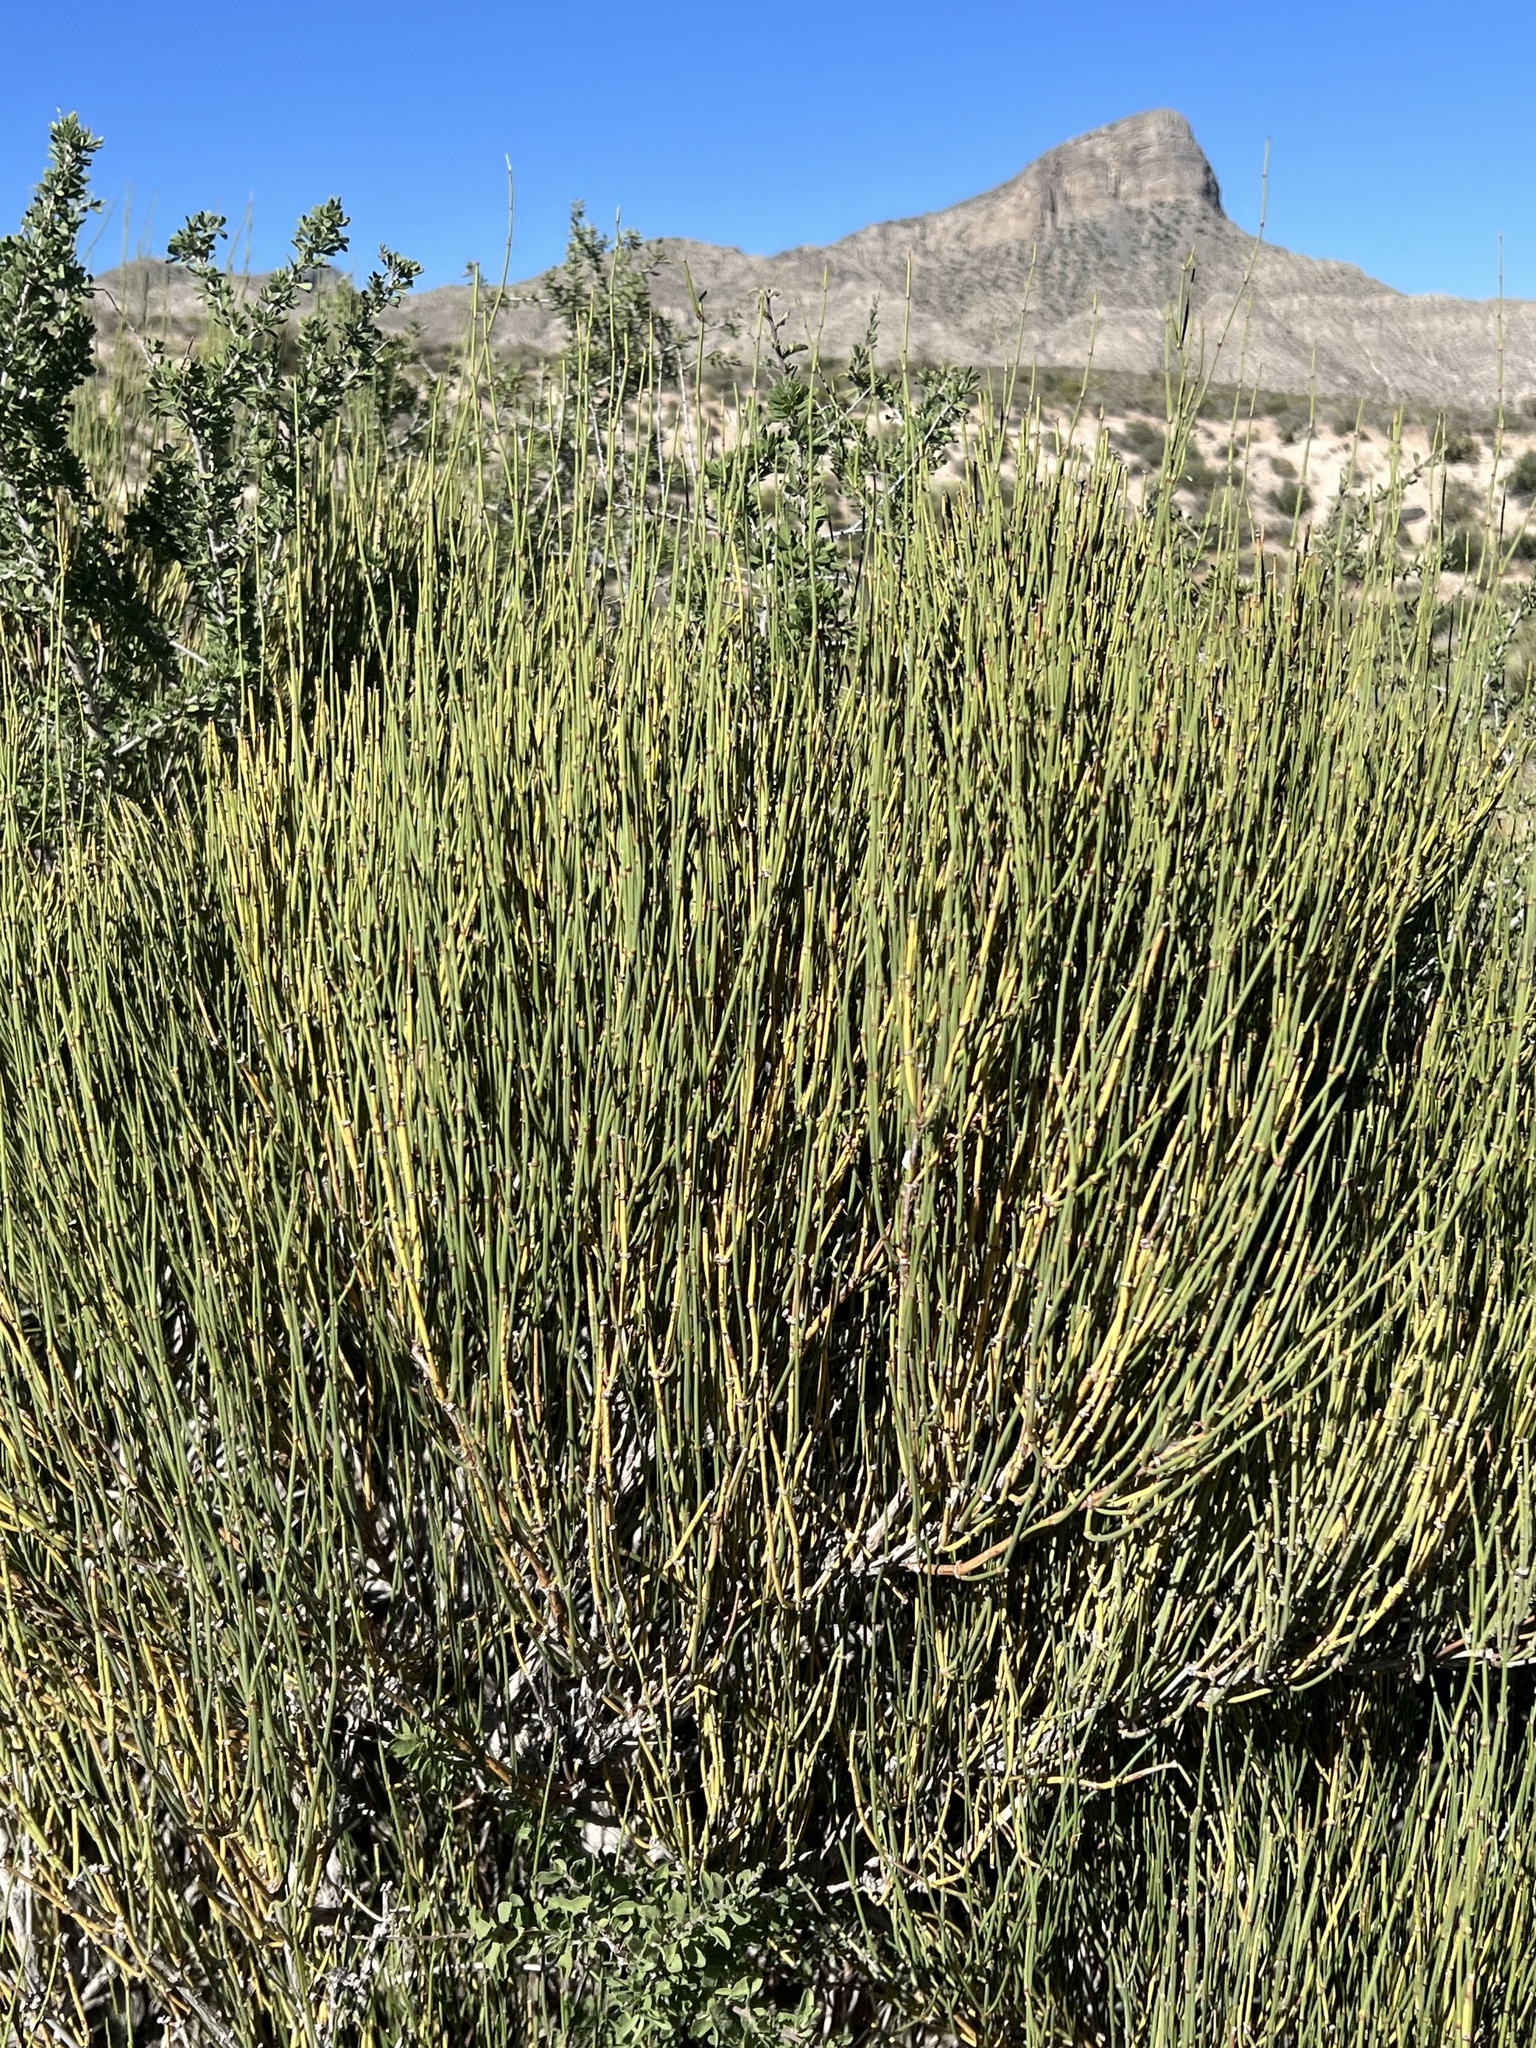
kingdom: Plantae
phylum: Tracheophyta
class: Gnetopsida
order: Ephedrales
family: Ephedraceae
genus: Ephedra
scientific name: Ephedra viridis
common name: Green ephedra
